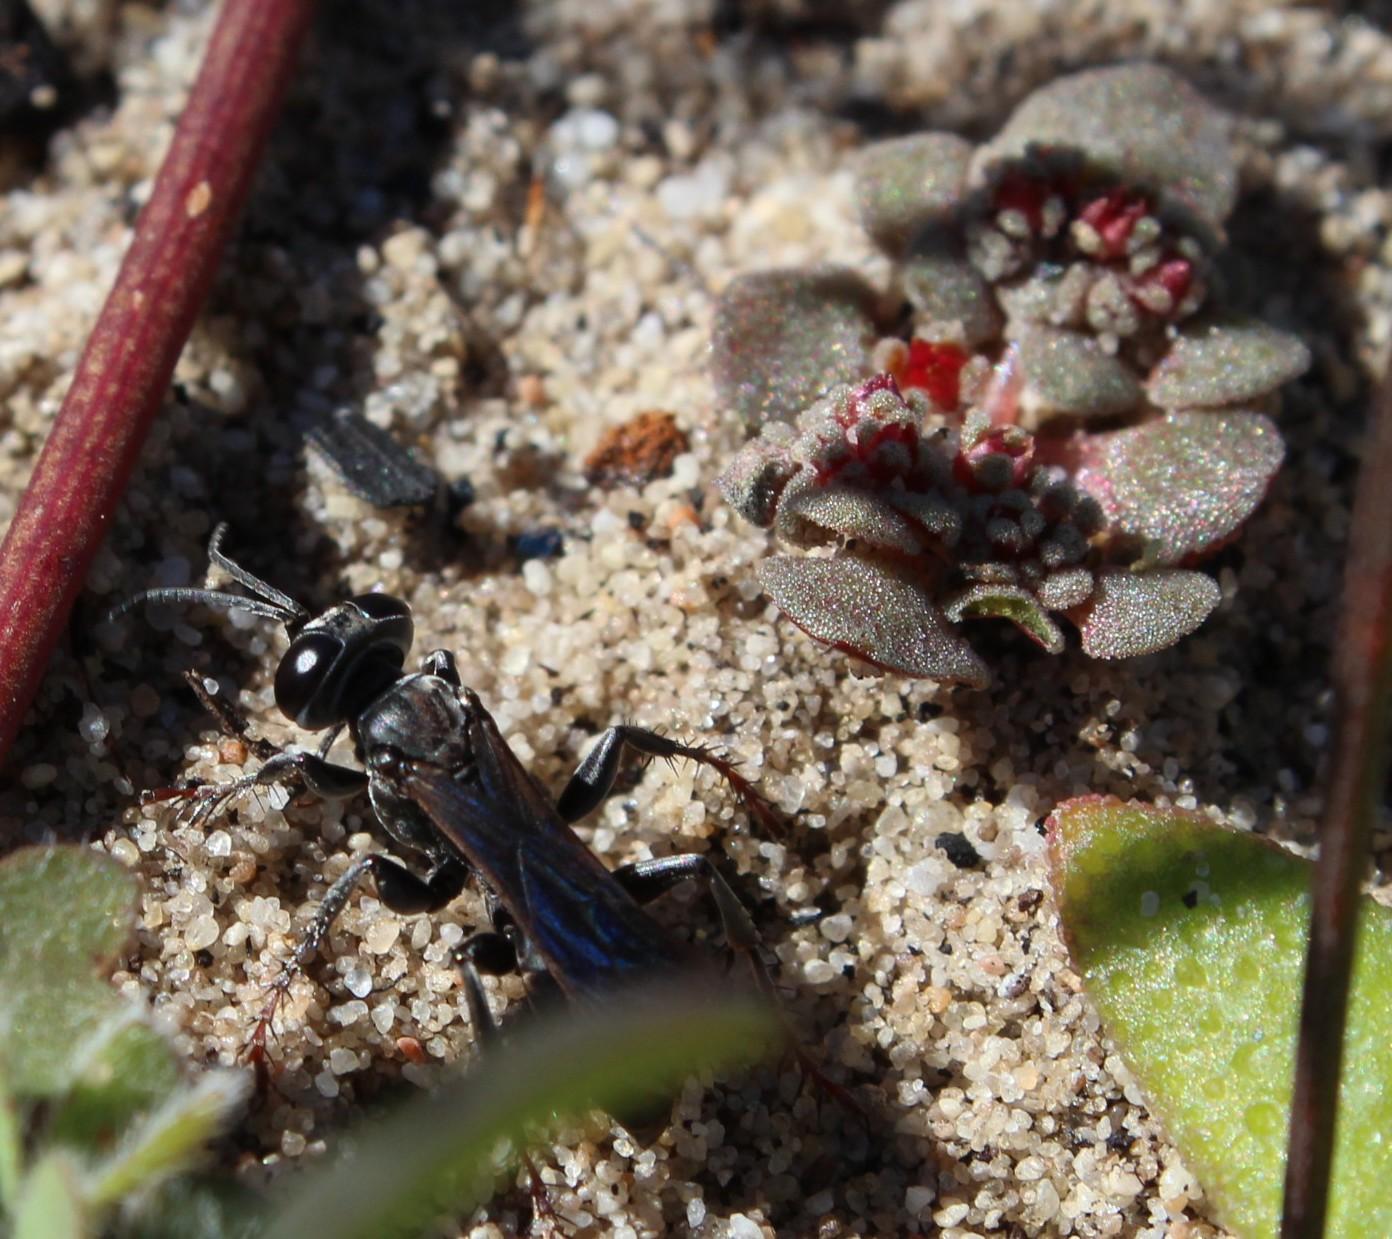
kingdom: Plantae
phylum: Tracheophyta
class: Magnoliopsida
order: Saxifragales
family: Crassulaceae
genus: Crassula
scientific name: Crassula umbellata
